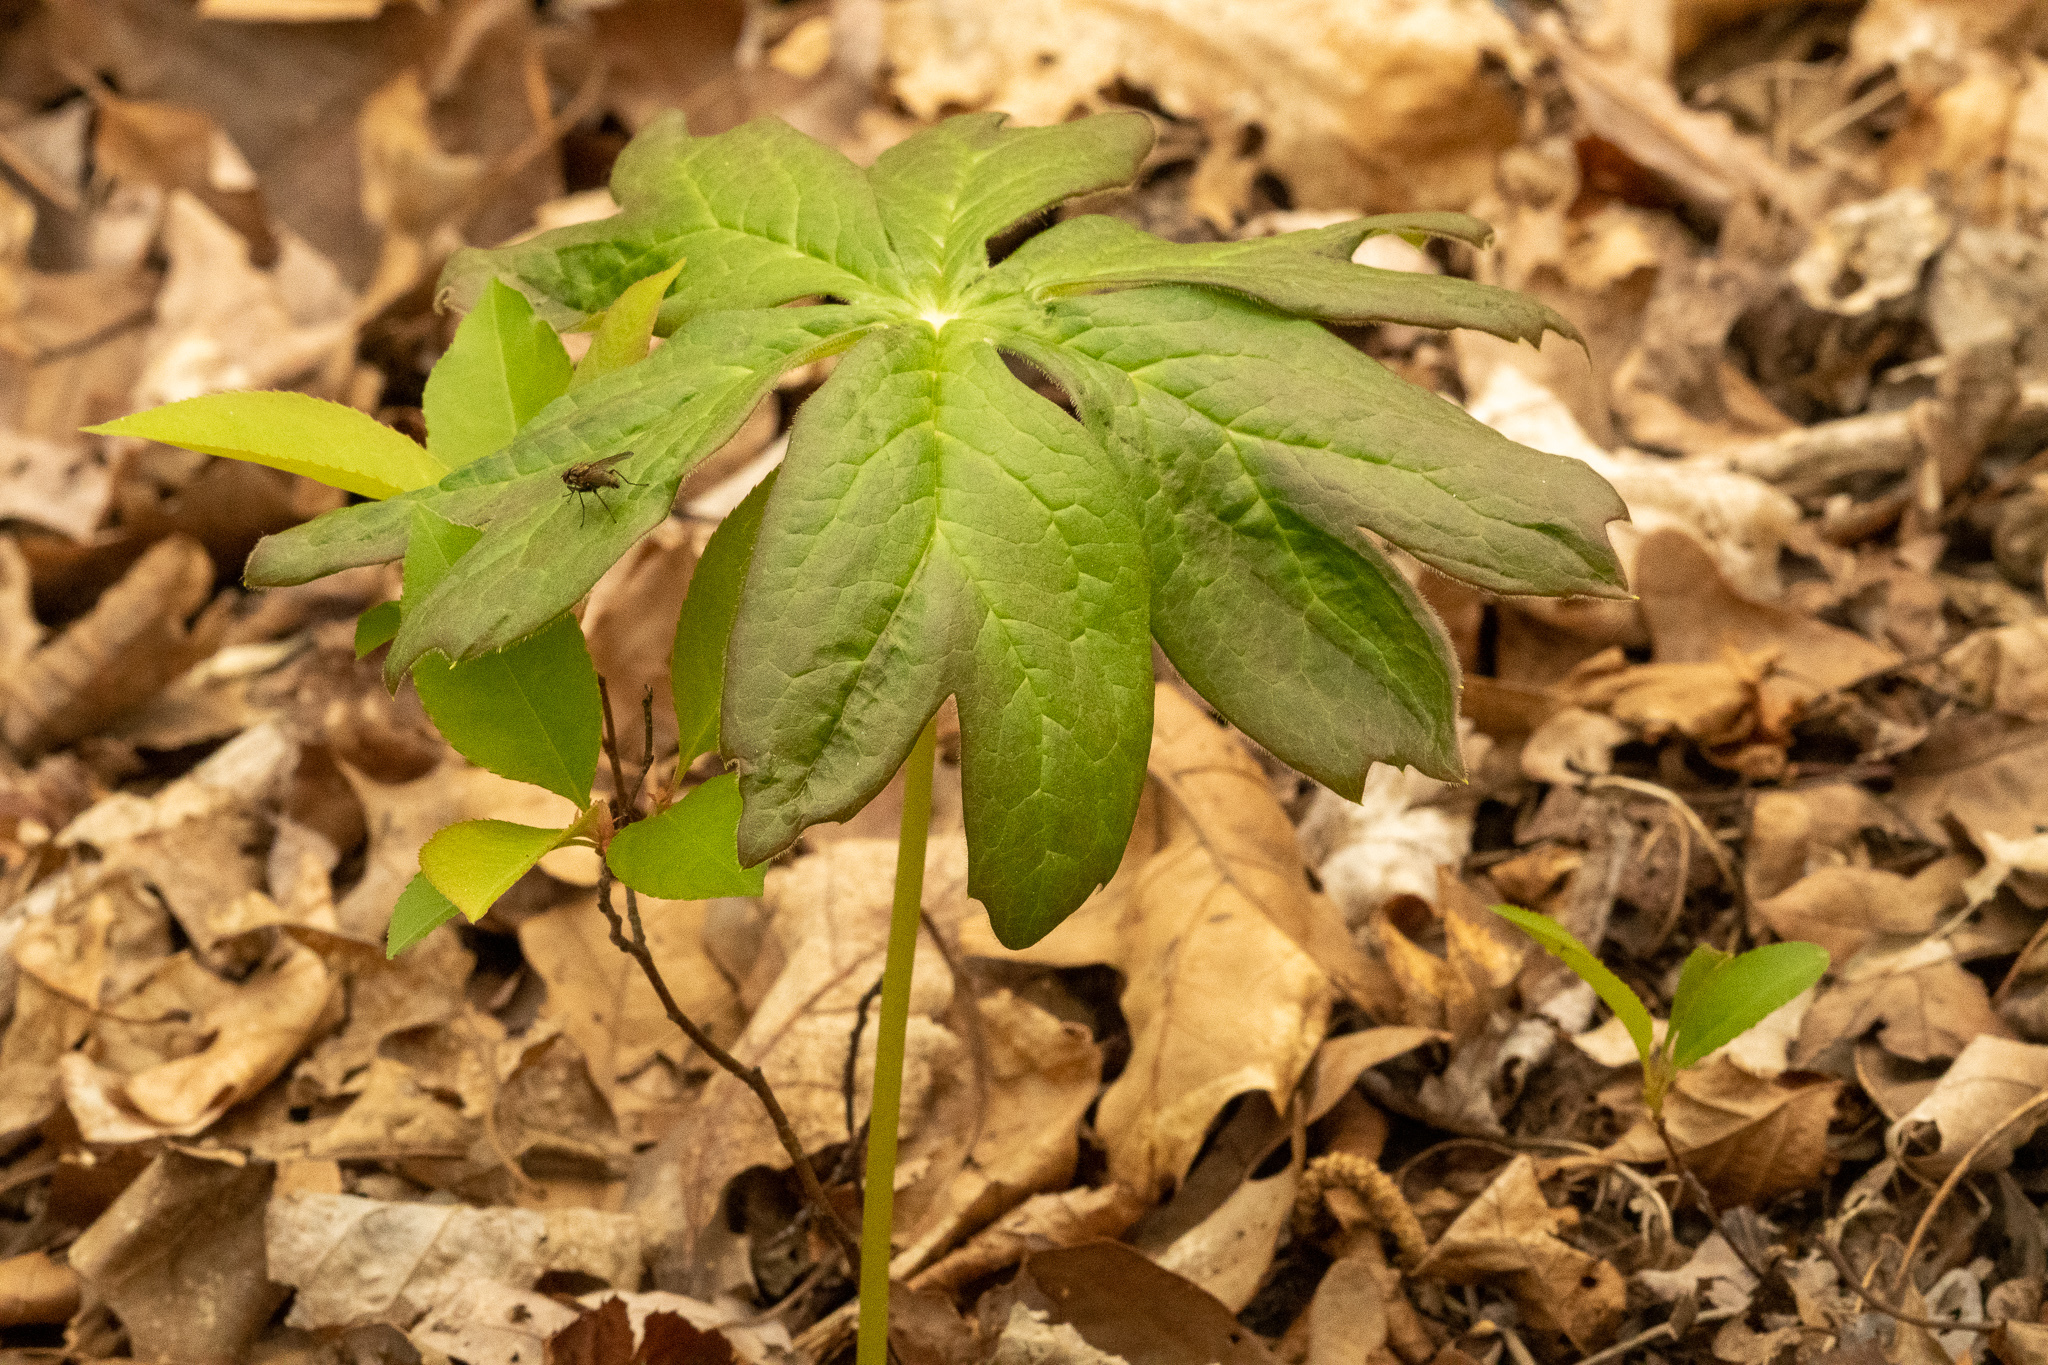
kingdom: Plantae
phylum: Tracheophyta
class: Magnoliopsida
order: Ranunculales
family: Berberidaceae
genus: Podophyllum
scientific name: Podophyllum peltatum
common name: Wild mandrake
